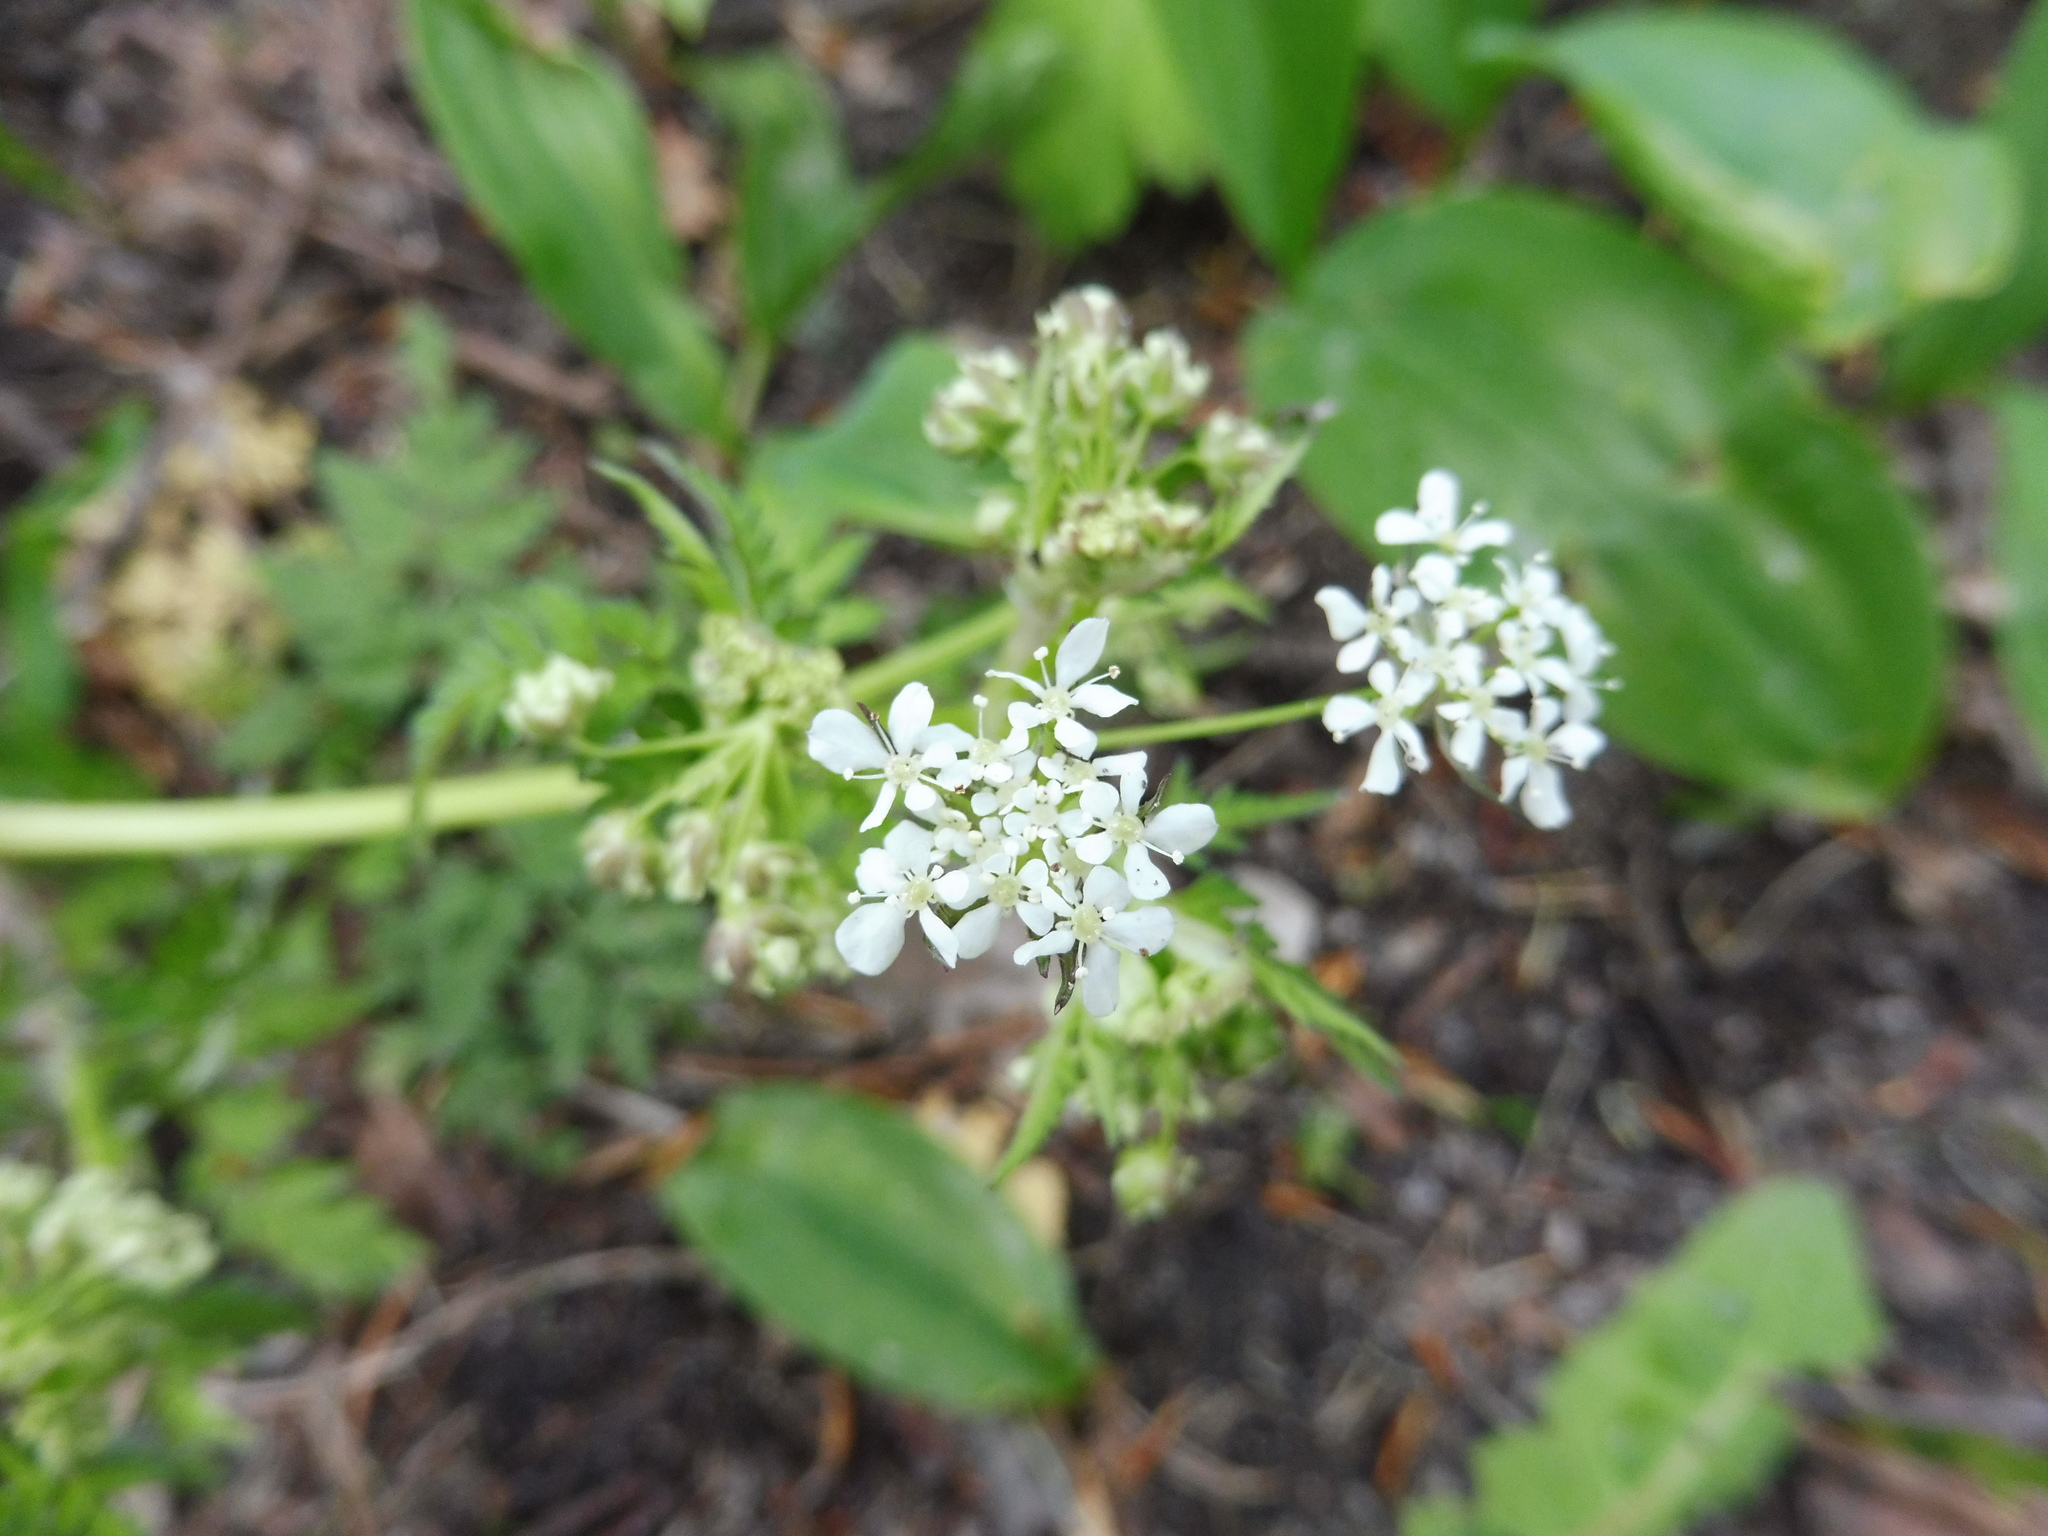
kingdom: Plantae
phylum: Tracheophyta
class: Magnoliopsida
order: Apiales
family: Apiaceae
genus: Anthriscus
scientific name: Anthriscus sylvestris
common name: Cow parsley
